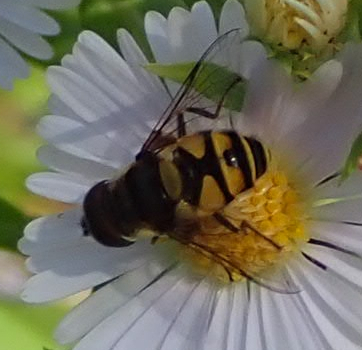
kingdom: Animalia
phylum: Arthropoda
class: Insecta
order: Diptera
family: Syrphidae
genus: Eristalis
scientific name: Eristalis transversa
